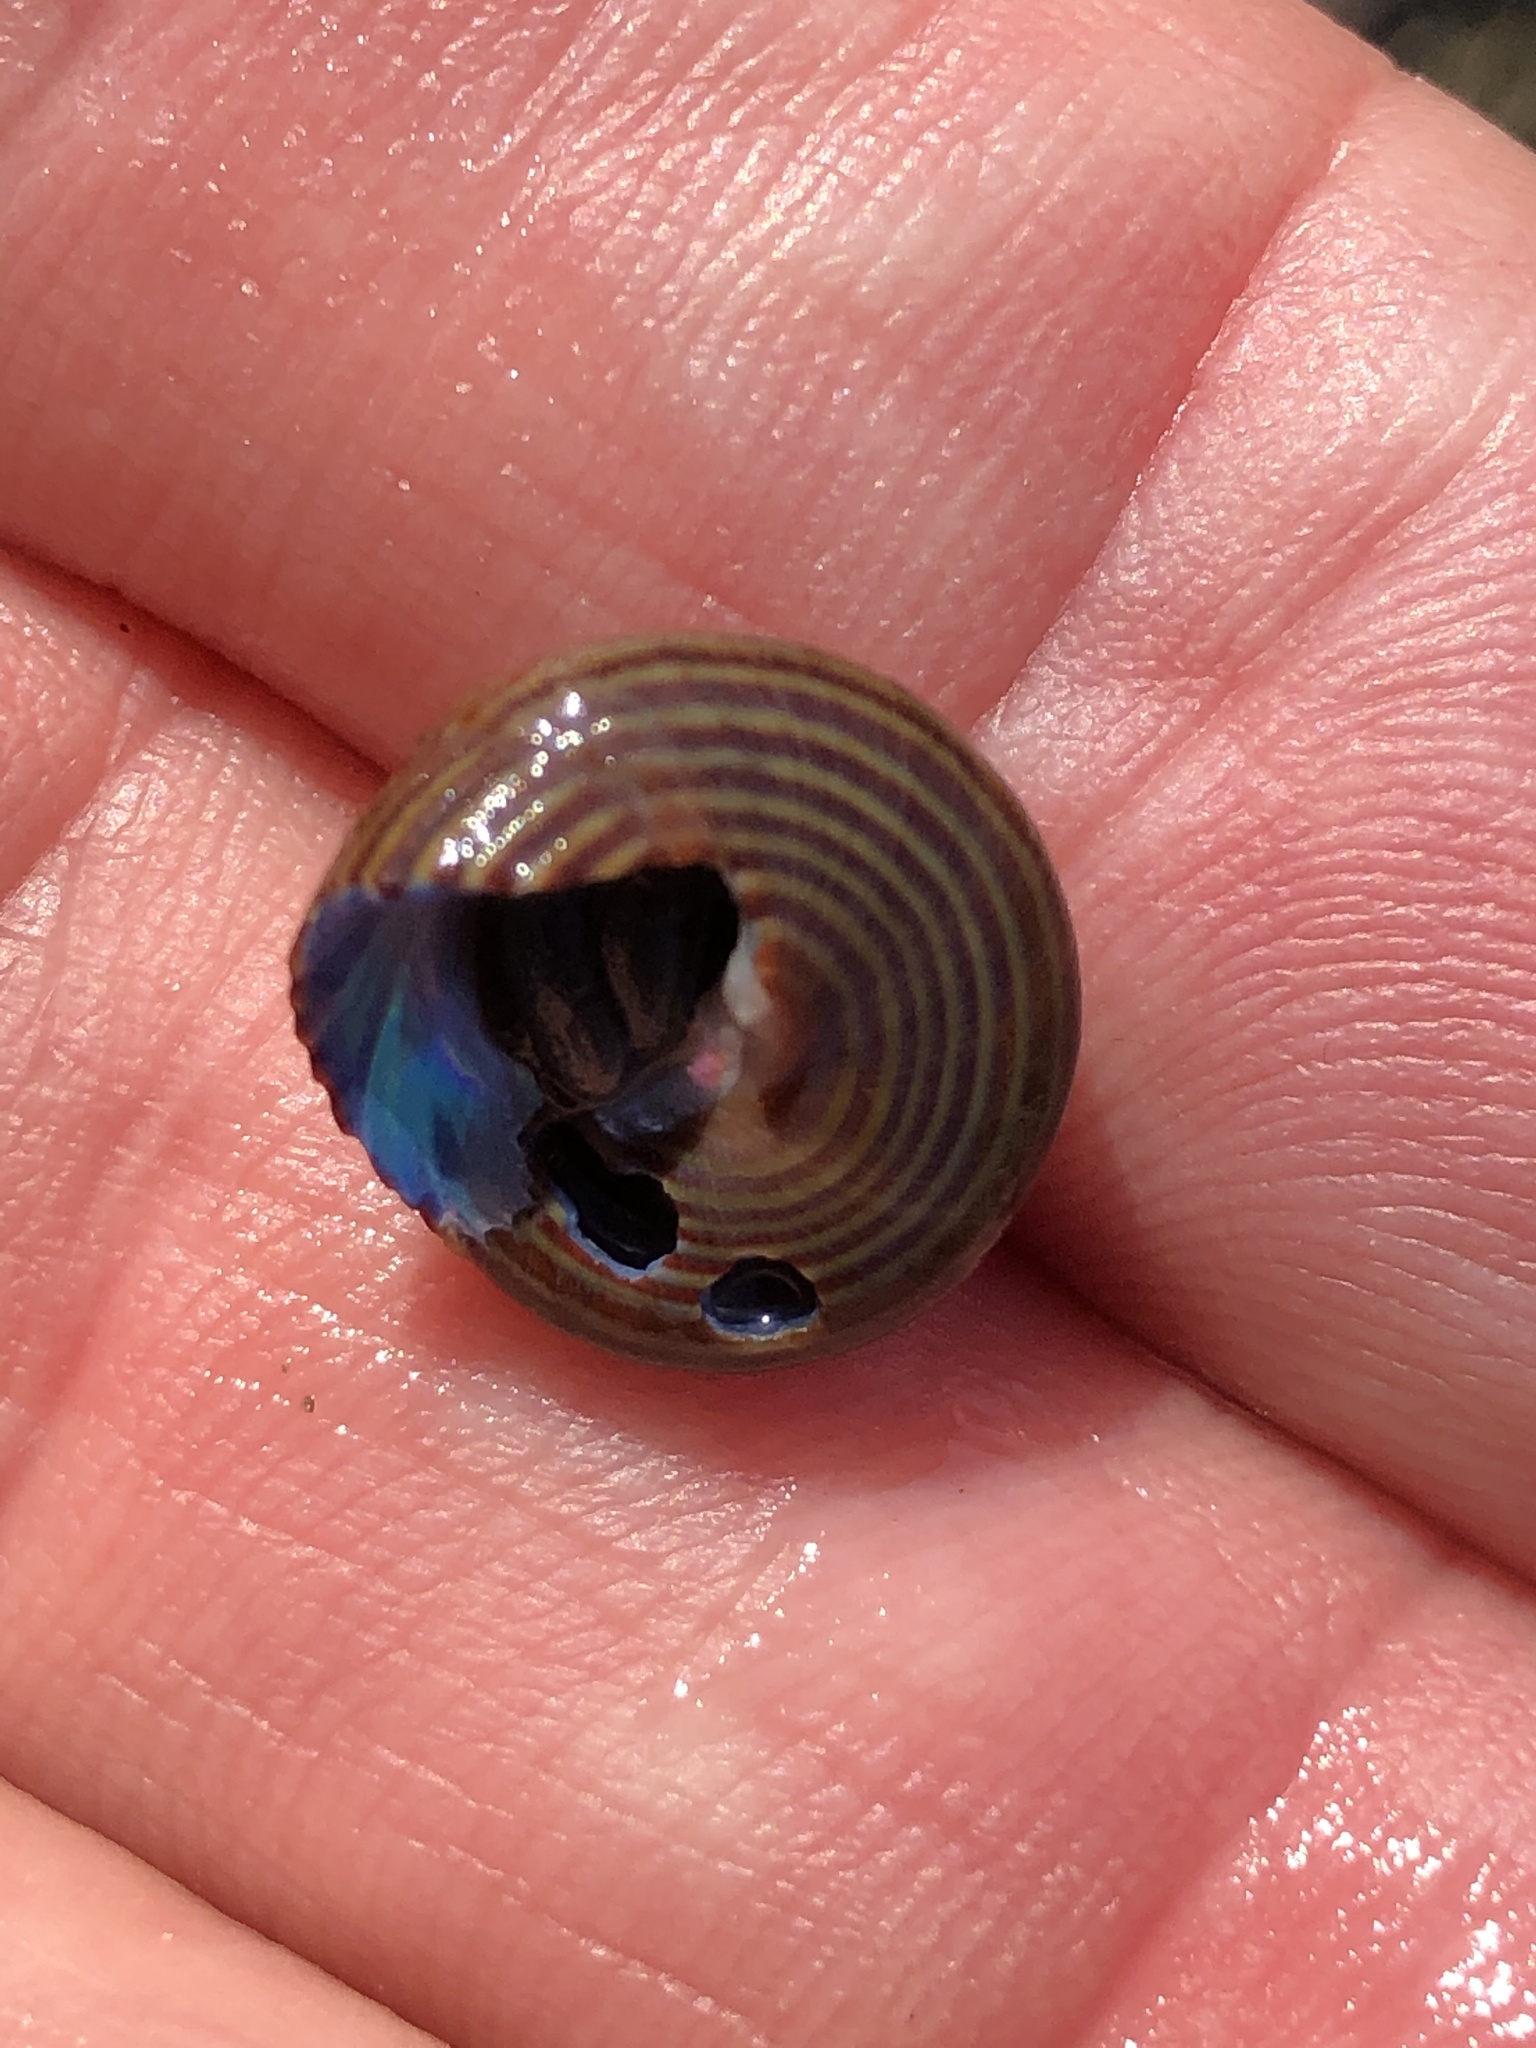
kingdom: Animalia
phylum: Mollusca
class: Gastropoda
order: Trochida
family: Calliostomatidae
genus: Calliostoma
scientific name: Calliostoma ligatum
